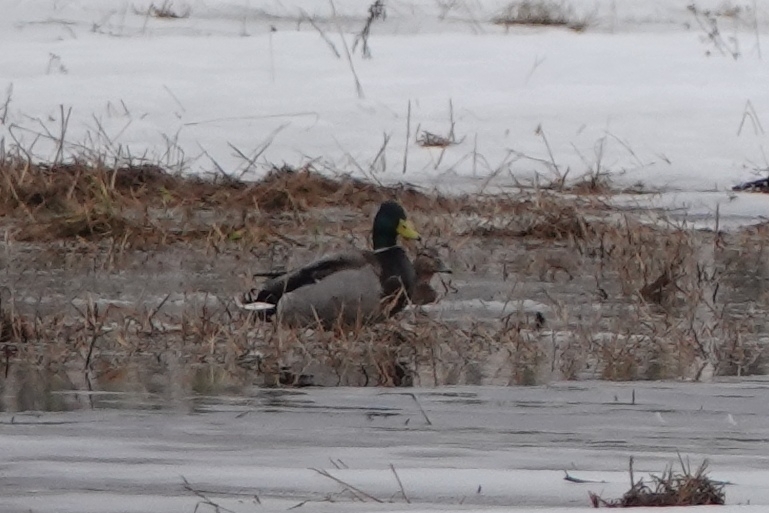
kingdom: Animalia
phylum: Chordata
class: Aves
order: Anseriformes
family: Anatidae
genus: Anas
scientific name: Anas platyrhynchos
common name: Mallard
